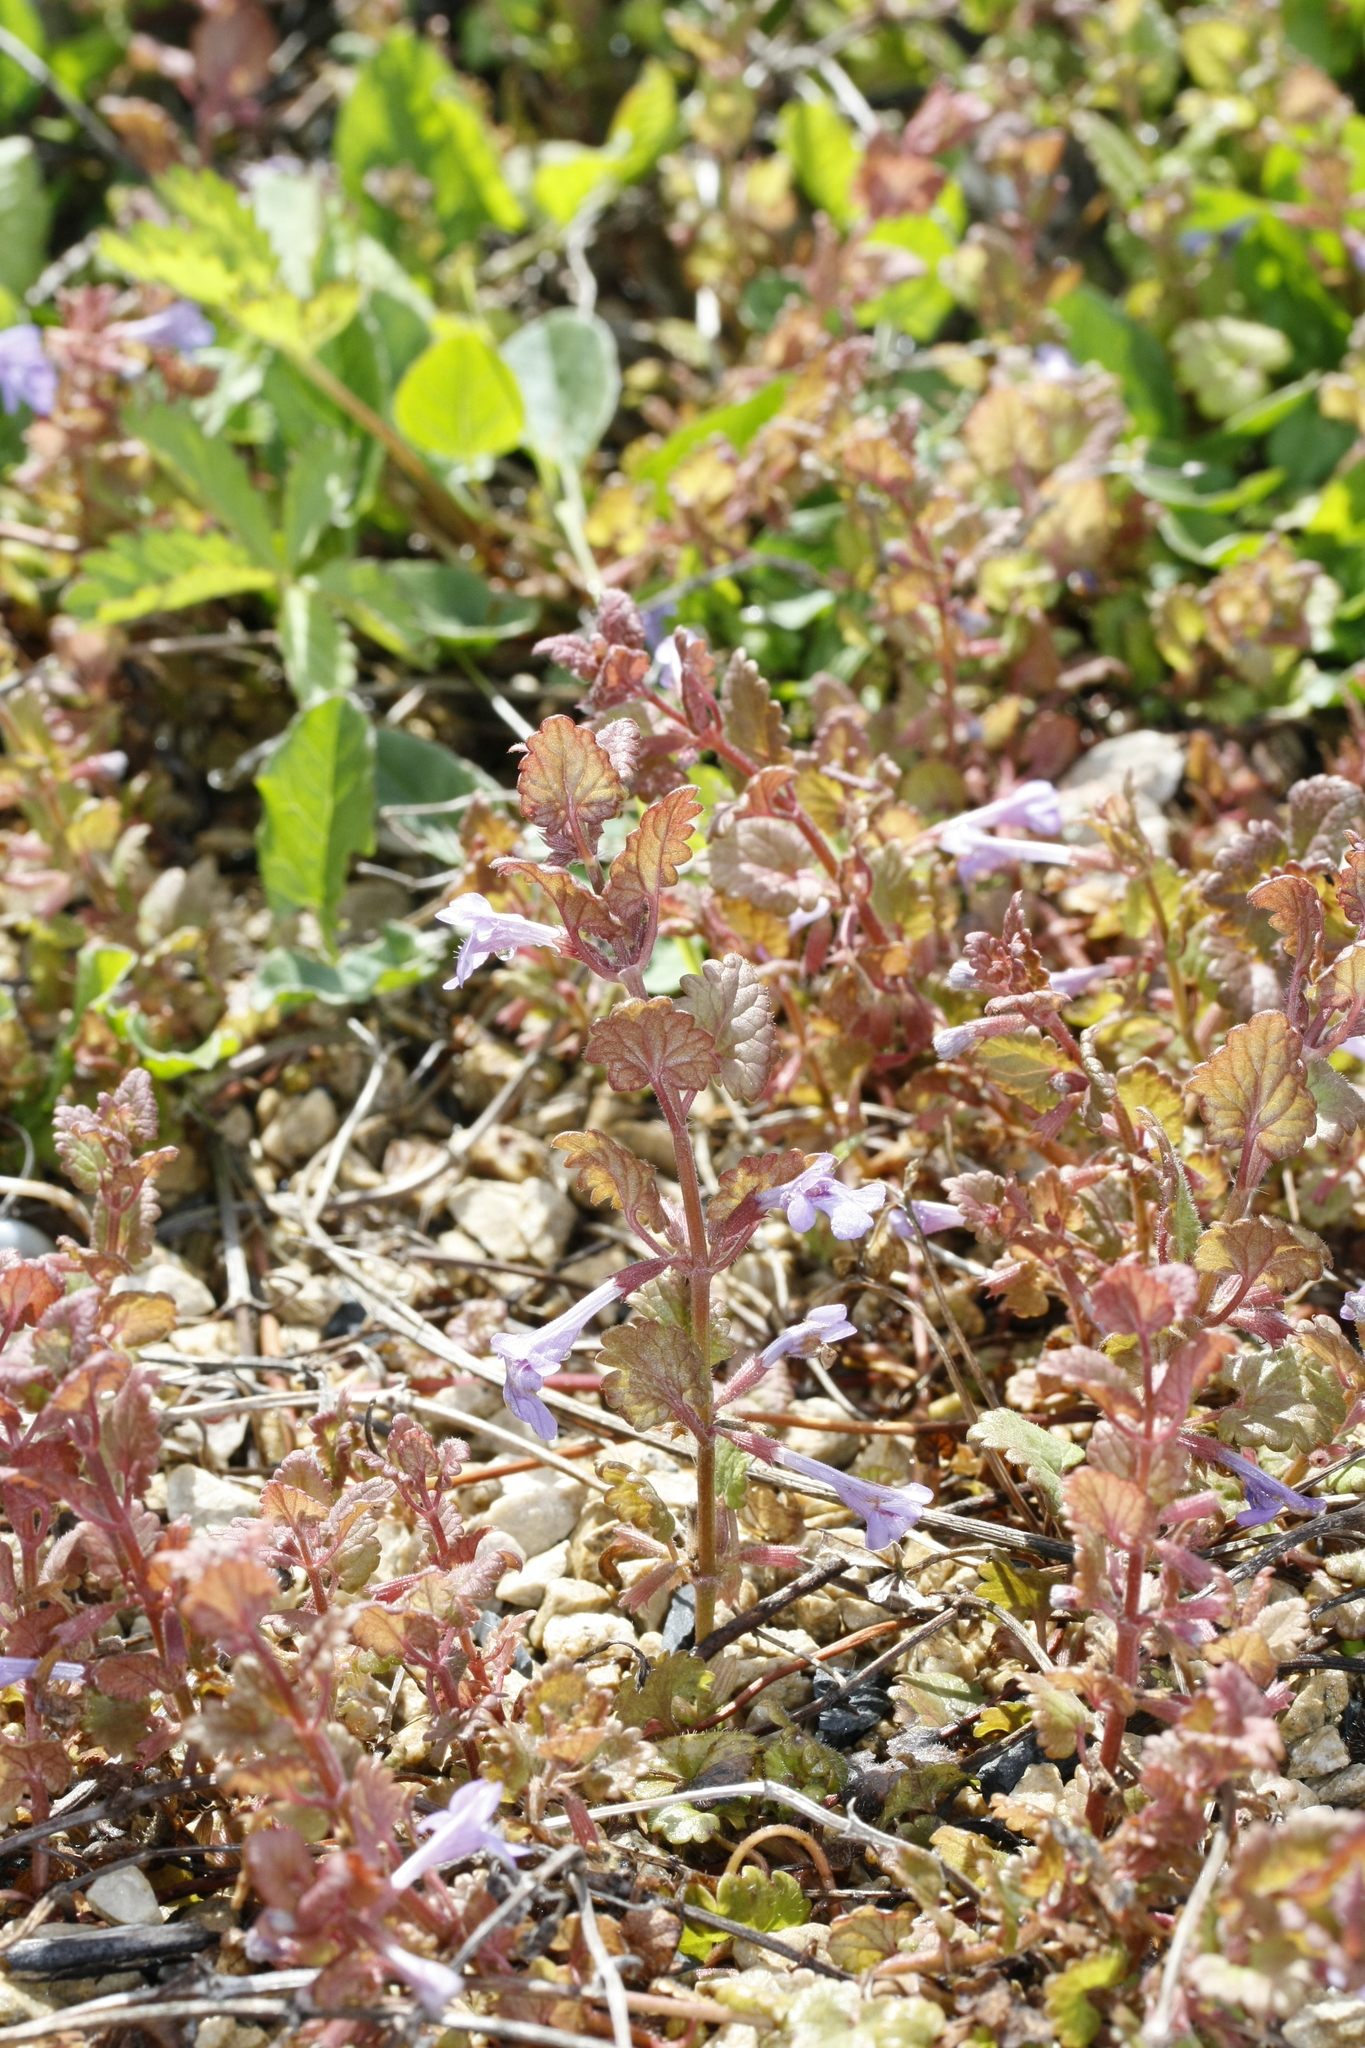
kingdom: Plantae
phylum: Tracheophyta
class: Magnoliopsida
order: Lamiales
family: Lamiaceae
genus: Glechoma
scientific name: Glechoma hederacea
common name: Ground ivy
